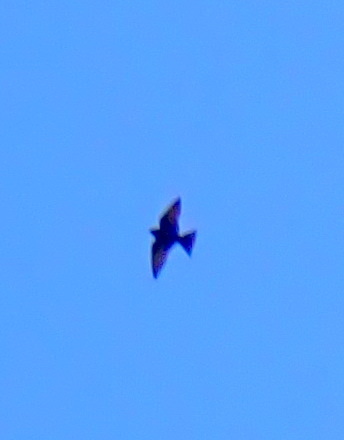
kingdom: Animalia
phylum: Chordata
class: Aves
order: Passeriformes
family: Hirundinidae
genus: Progne
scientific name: Progne subis
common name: Purple martin
